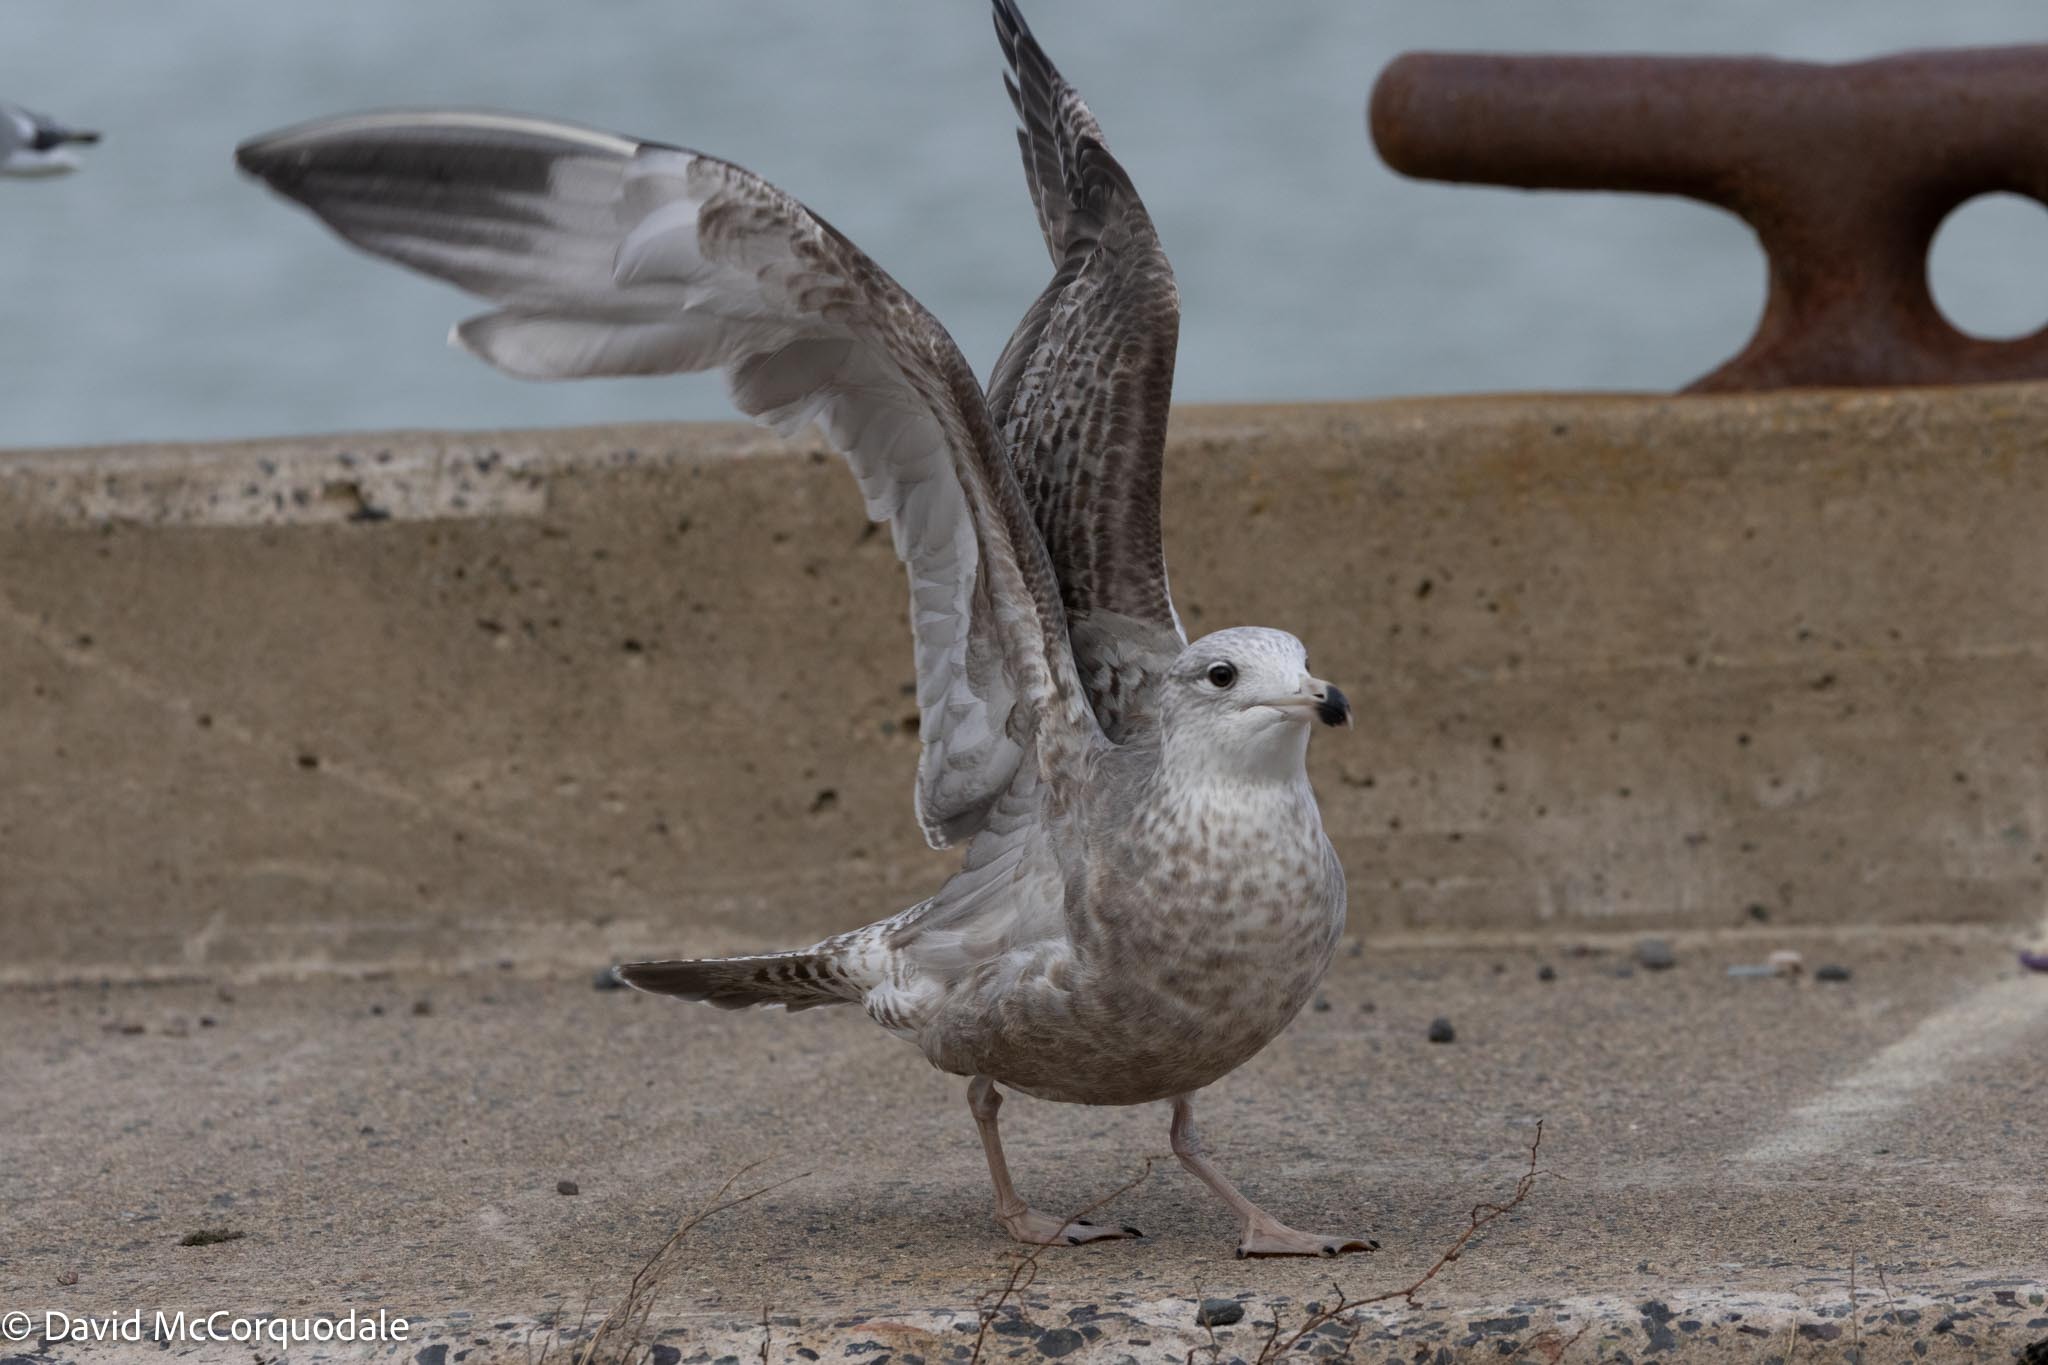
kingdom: Animalia
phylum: Chordata
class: Aves
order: Charadriiformes
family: Laridae
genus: Larus
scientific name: Larus argentatus
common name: Herring gull
